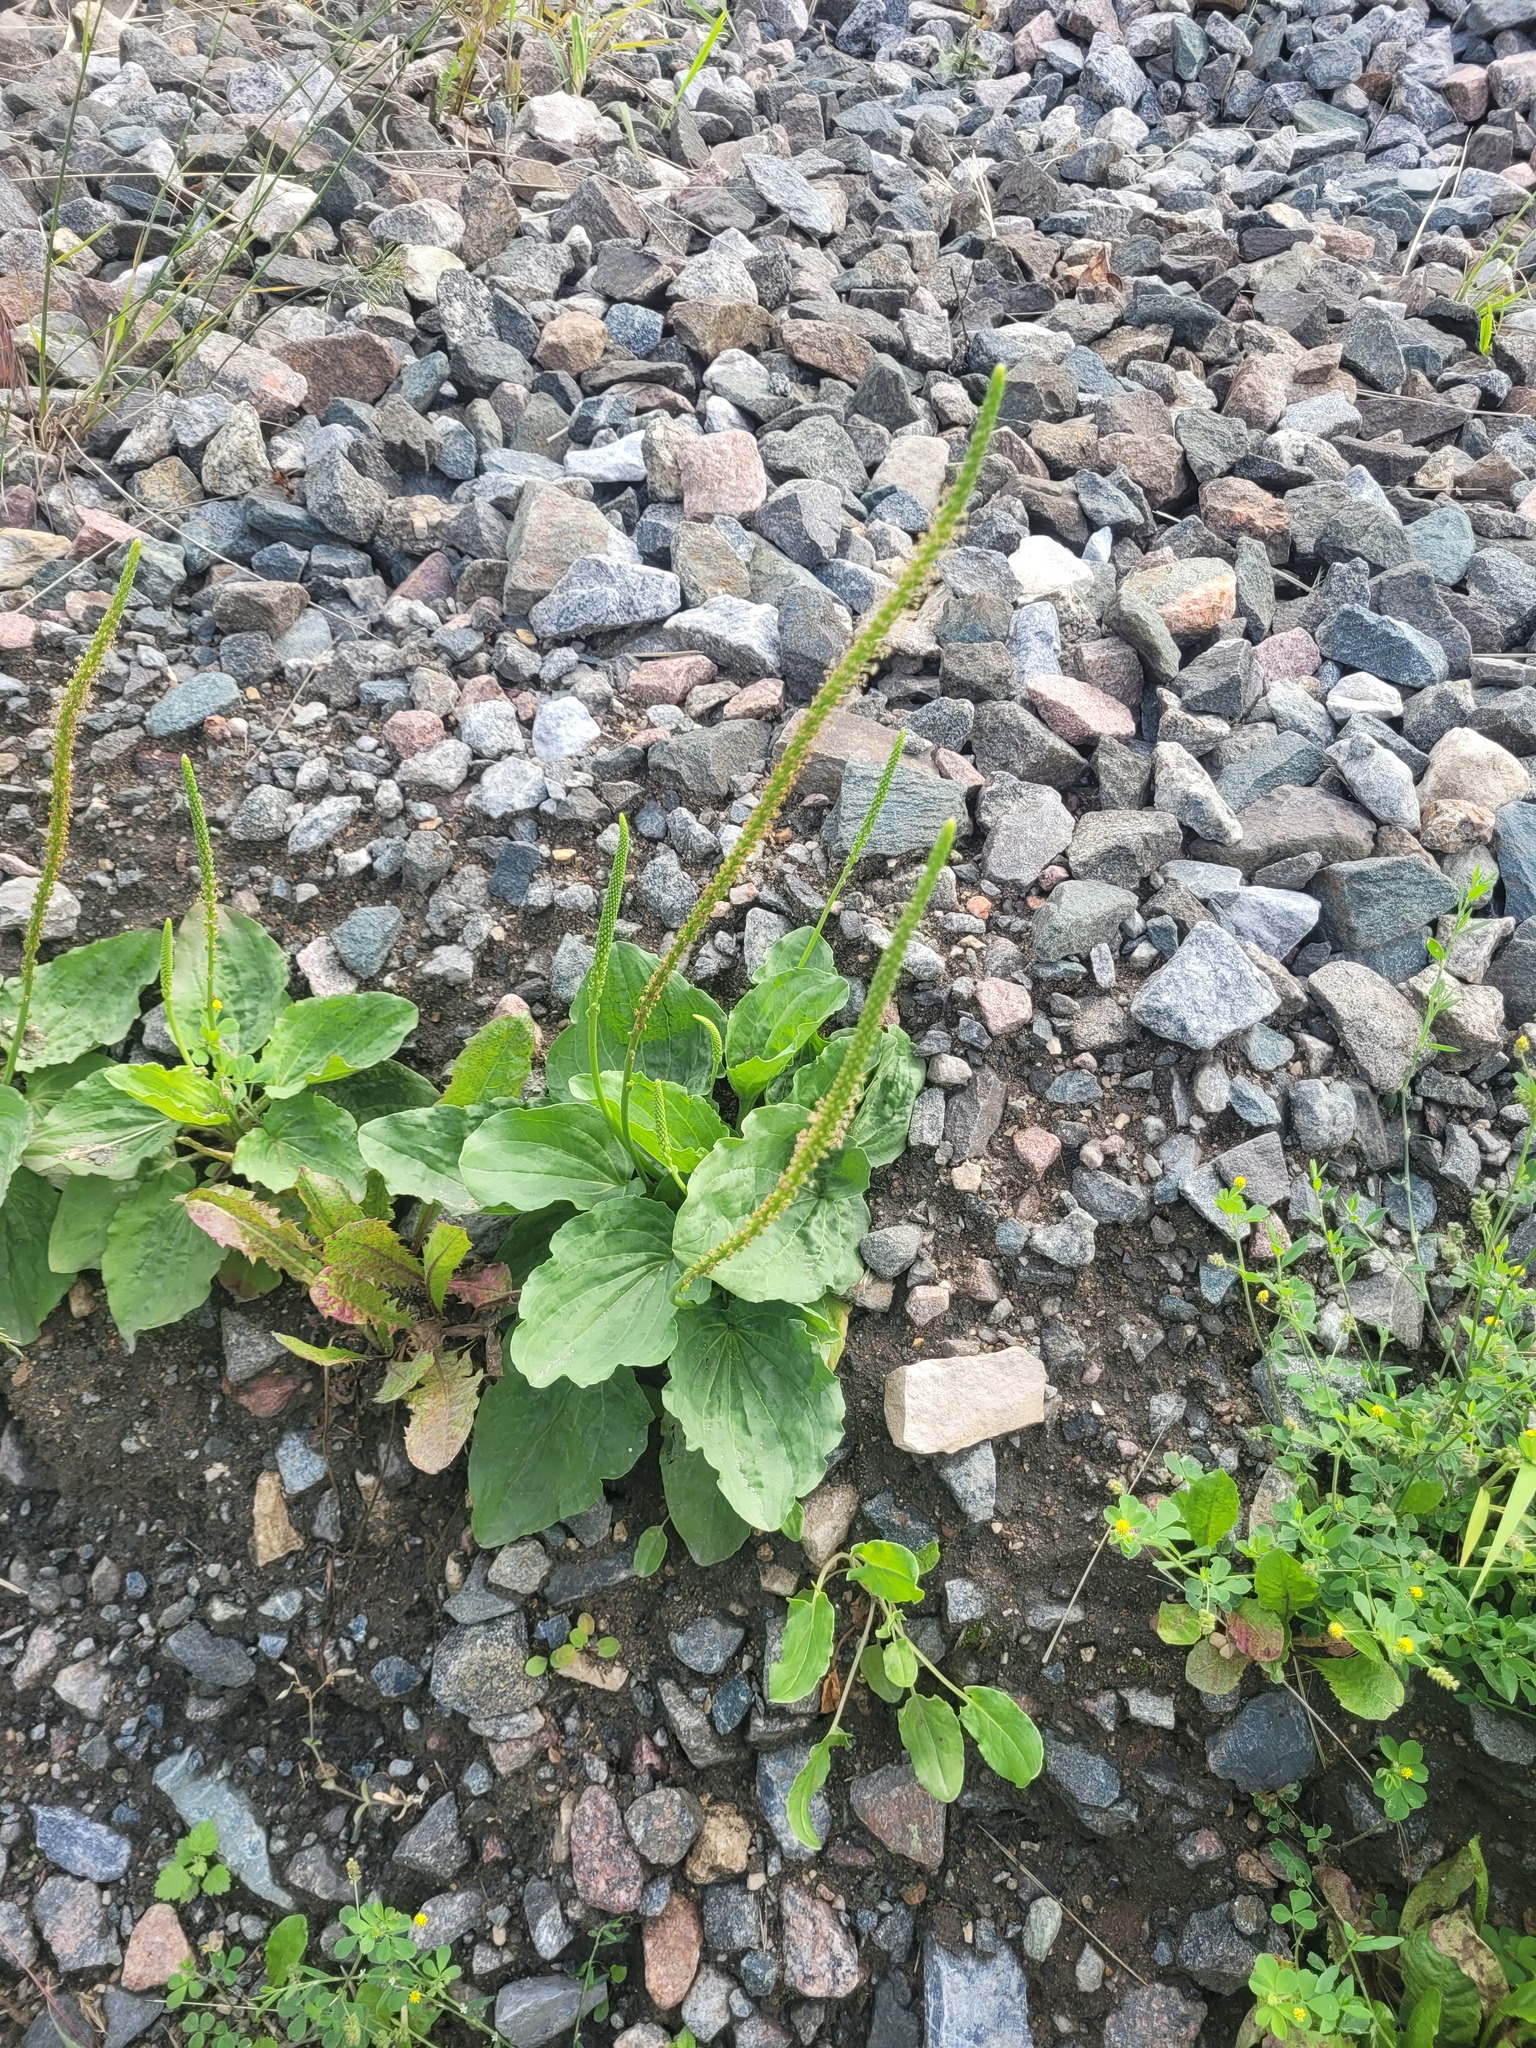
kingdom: Plantae
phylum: Tracheophyta
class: Magnoliopsida
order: Lamiales
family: Plantaginaceae
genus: Plantago
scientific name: Plantago major
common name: Common plantain
